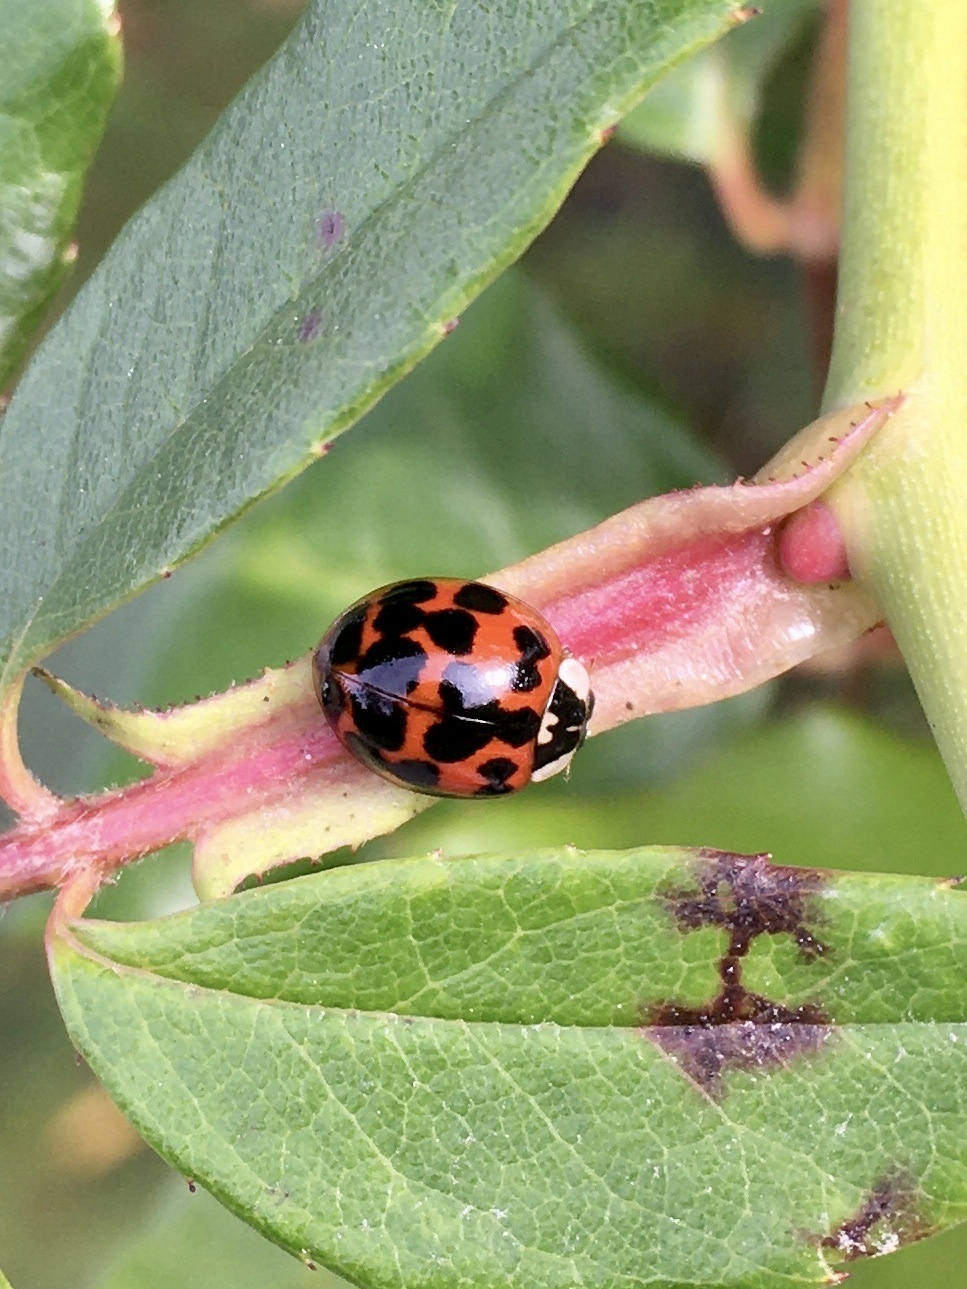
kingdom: Animalia
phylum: Arthropoda
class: Insecta
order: Coleoptera
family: Coccinellidae
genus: Harmonia
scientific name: Harmonia axyridis
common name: Harlequin ladybird
